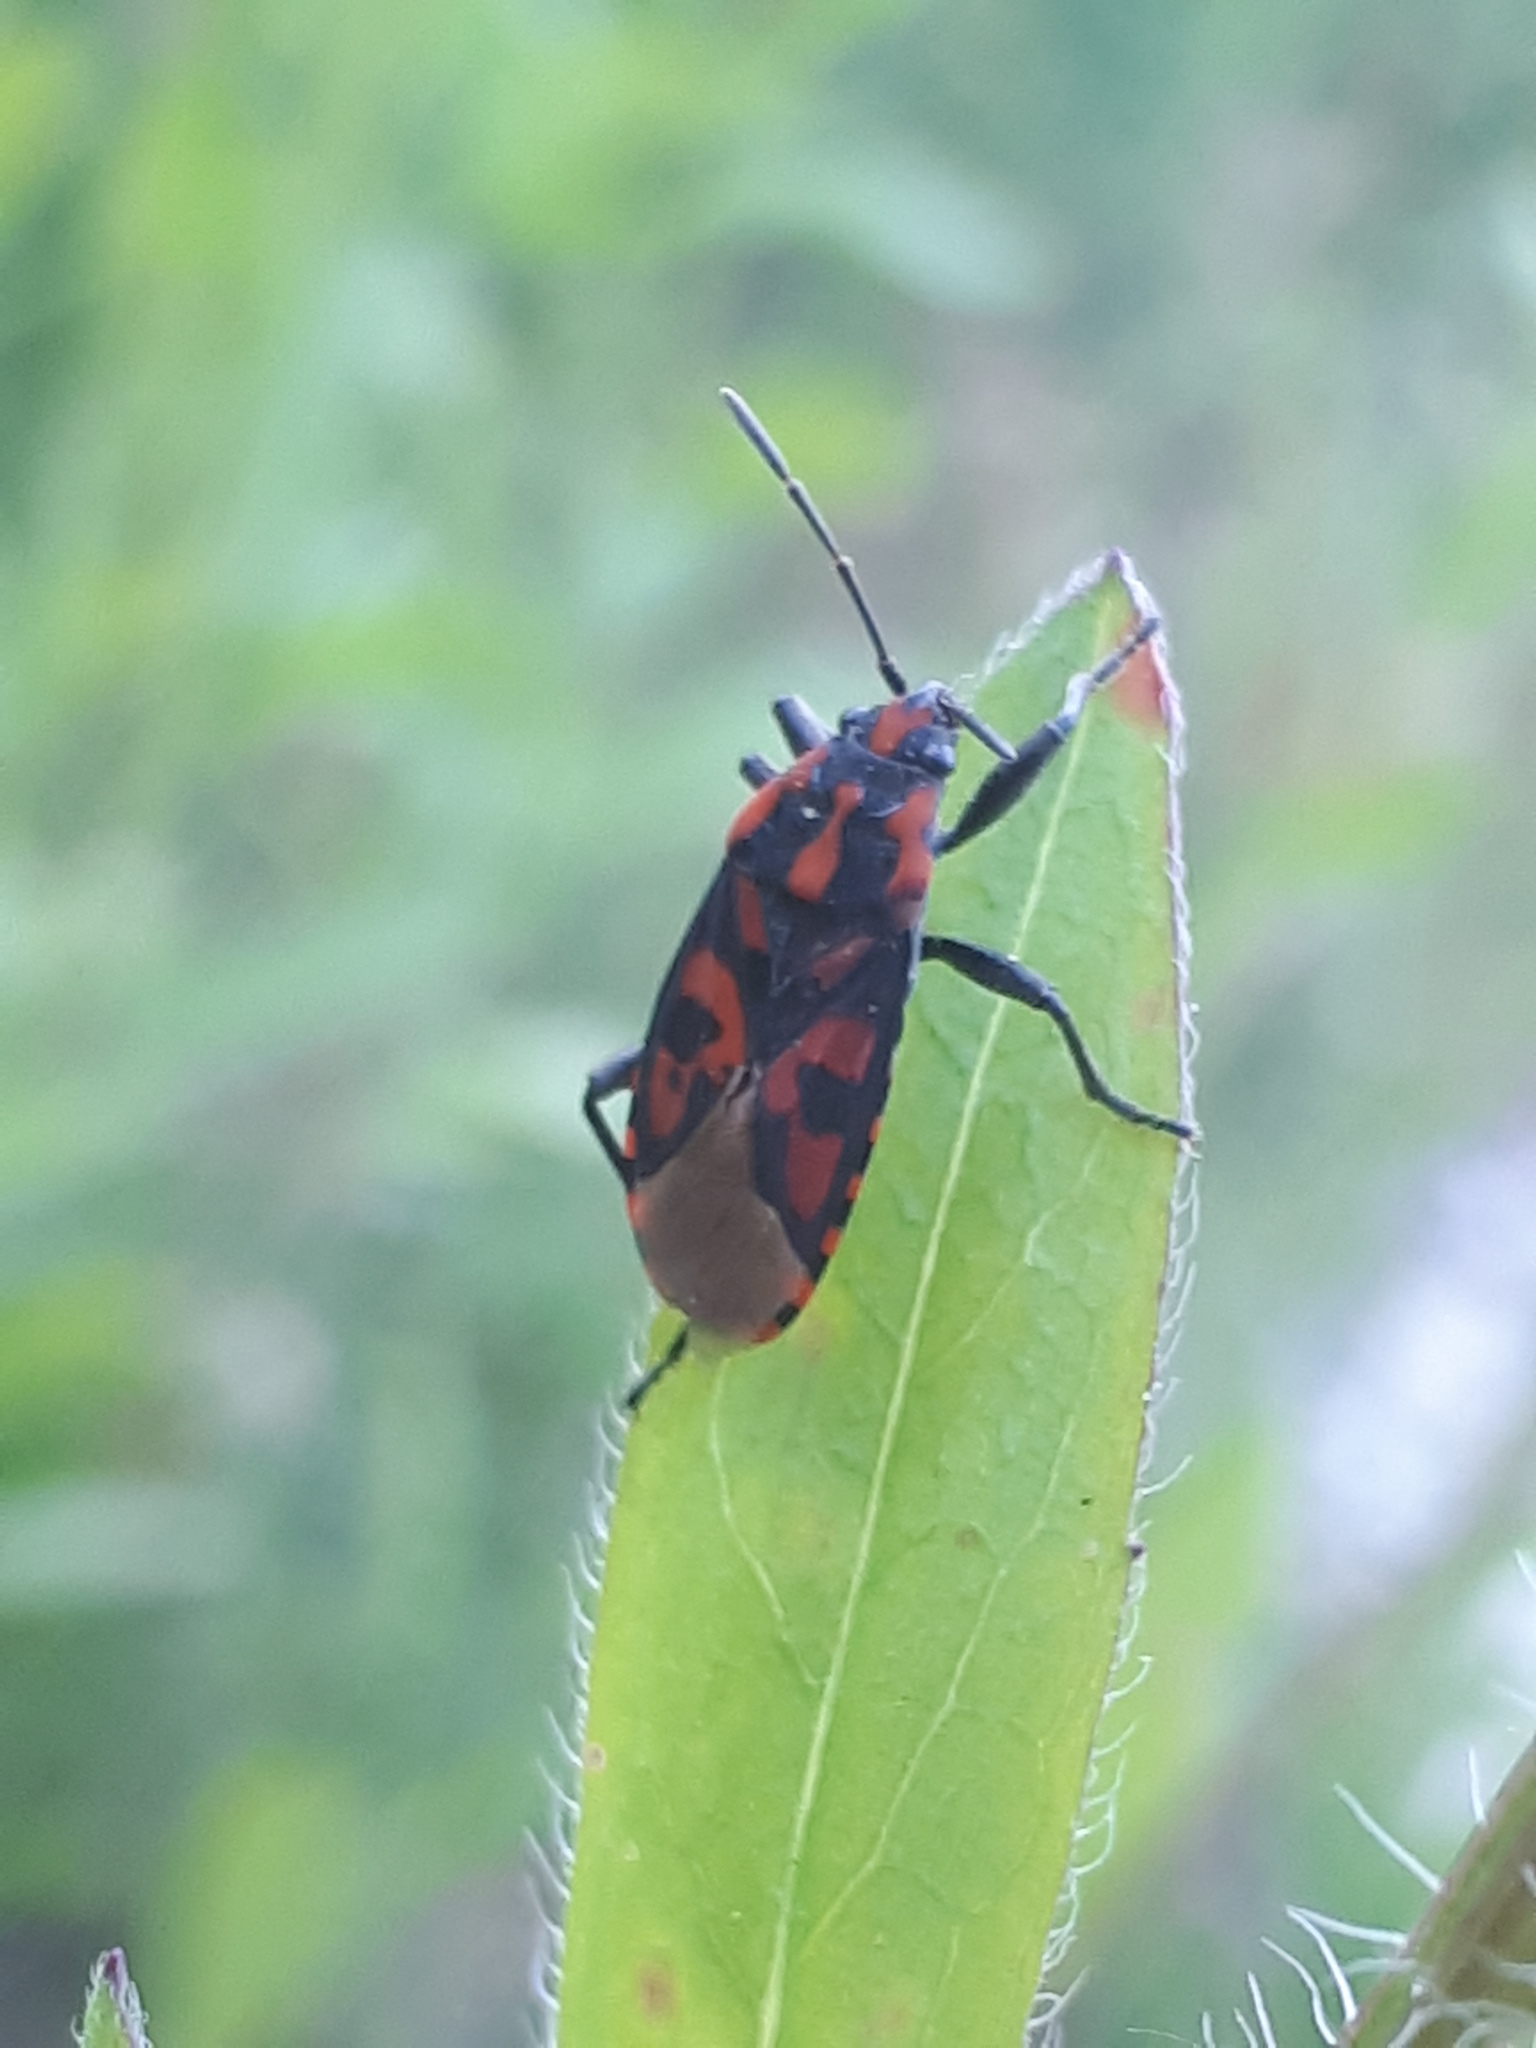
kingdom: Animalia
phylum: Arthropoda
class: Insecta
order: Hemiptera
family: Lygaeidae
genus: Spilostethus
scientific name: Spilostethus saxatilis
